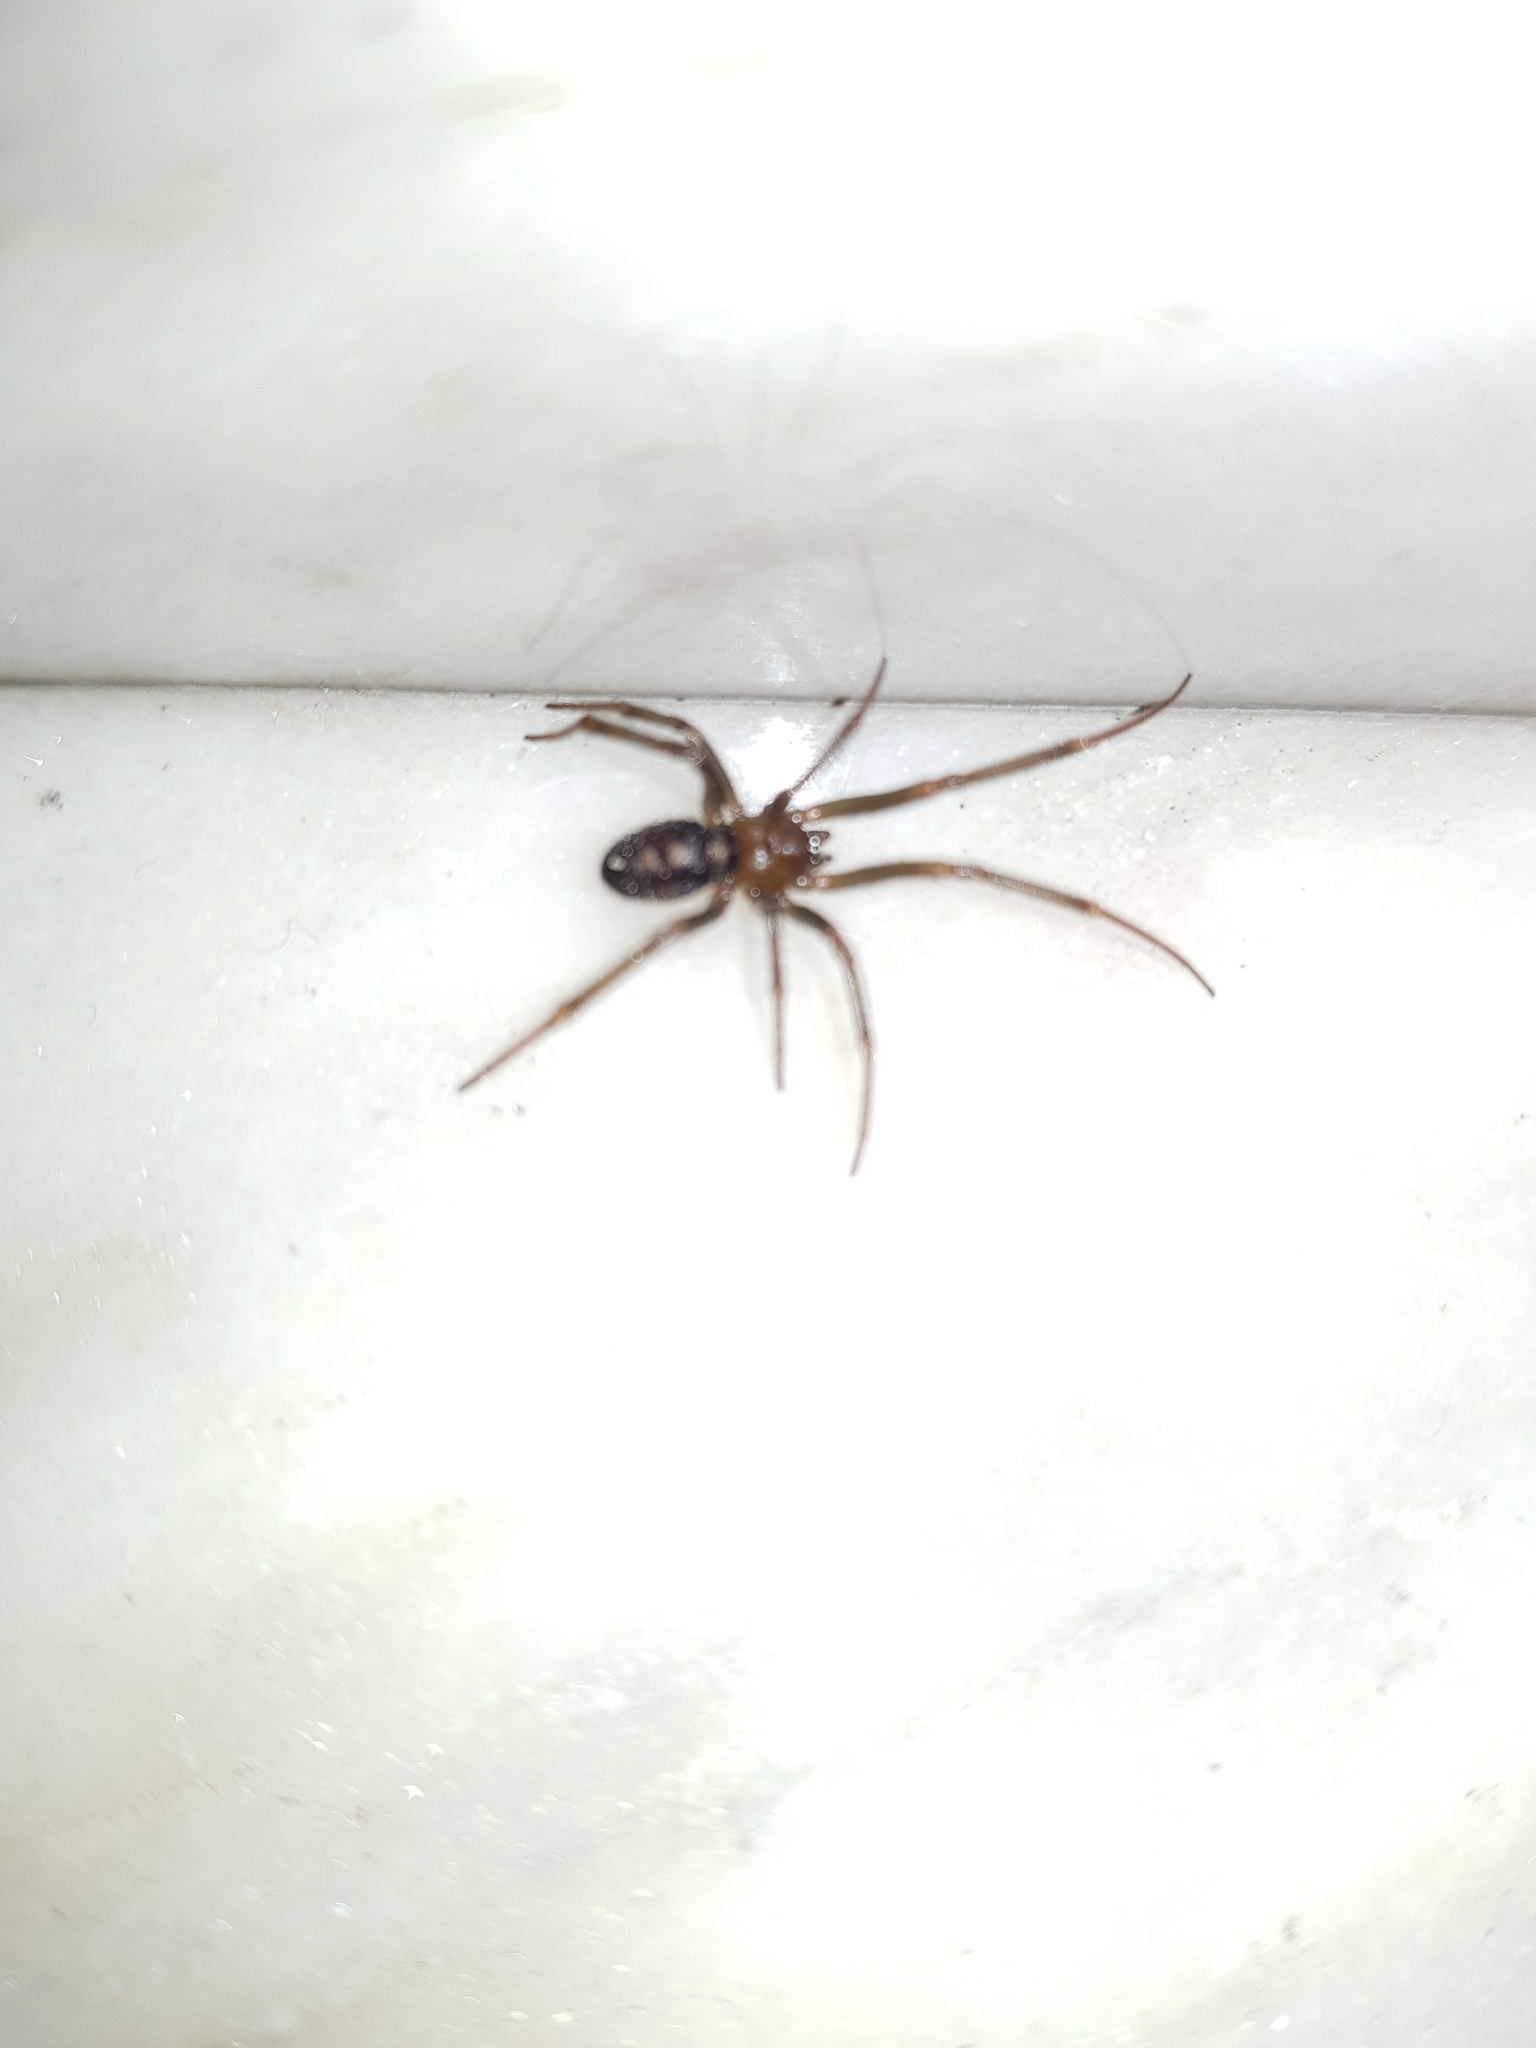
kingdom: Animalia
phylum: Arthropoda
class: Arachnida
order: Araneae
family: Theridiidae
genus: Steatoda
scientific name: Steatoda grossa
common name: False black widow
